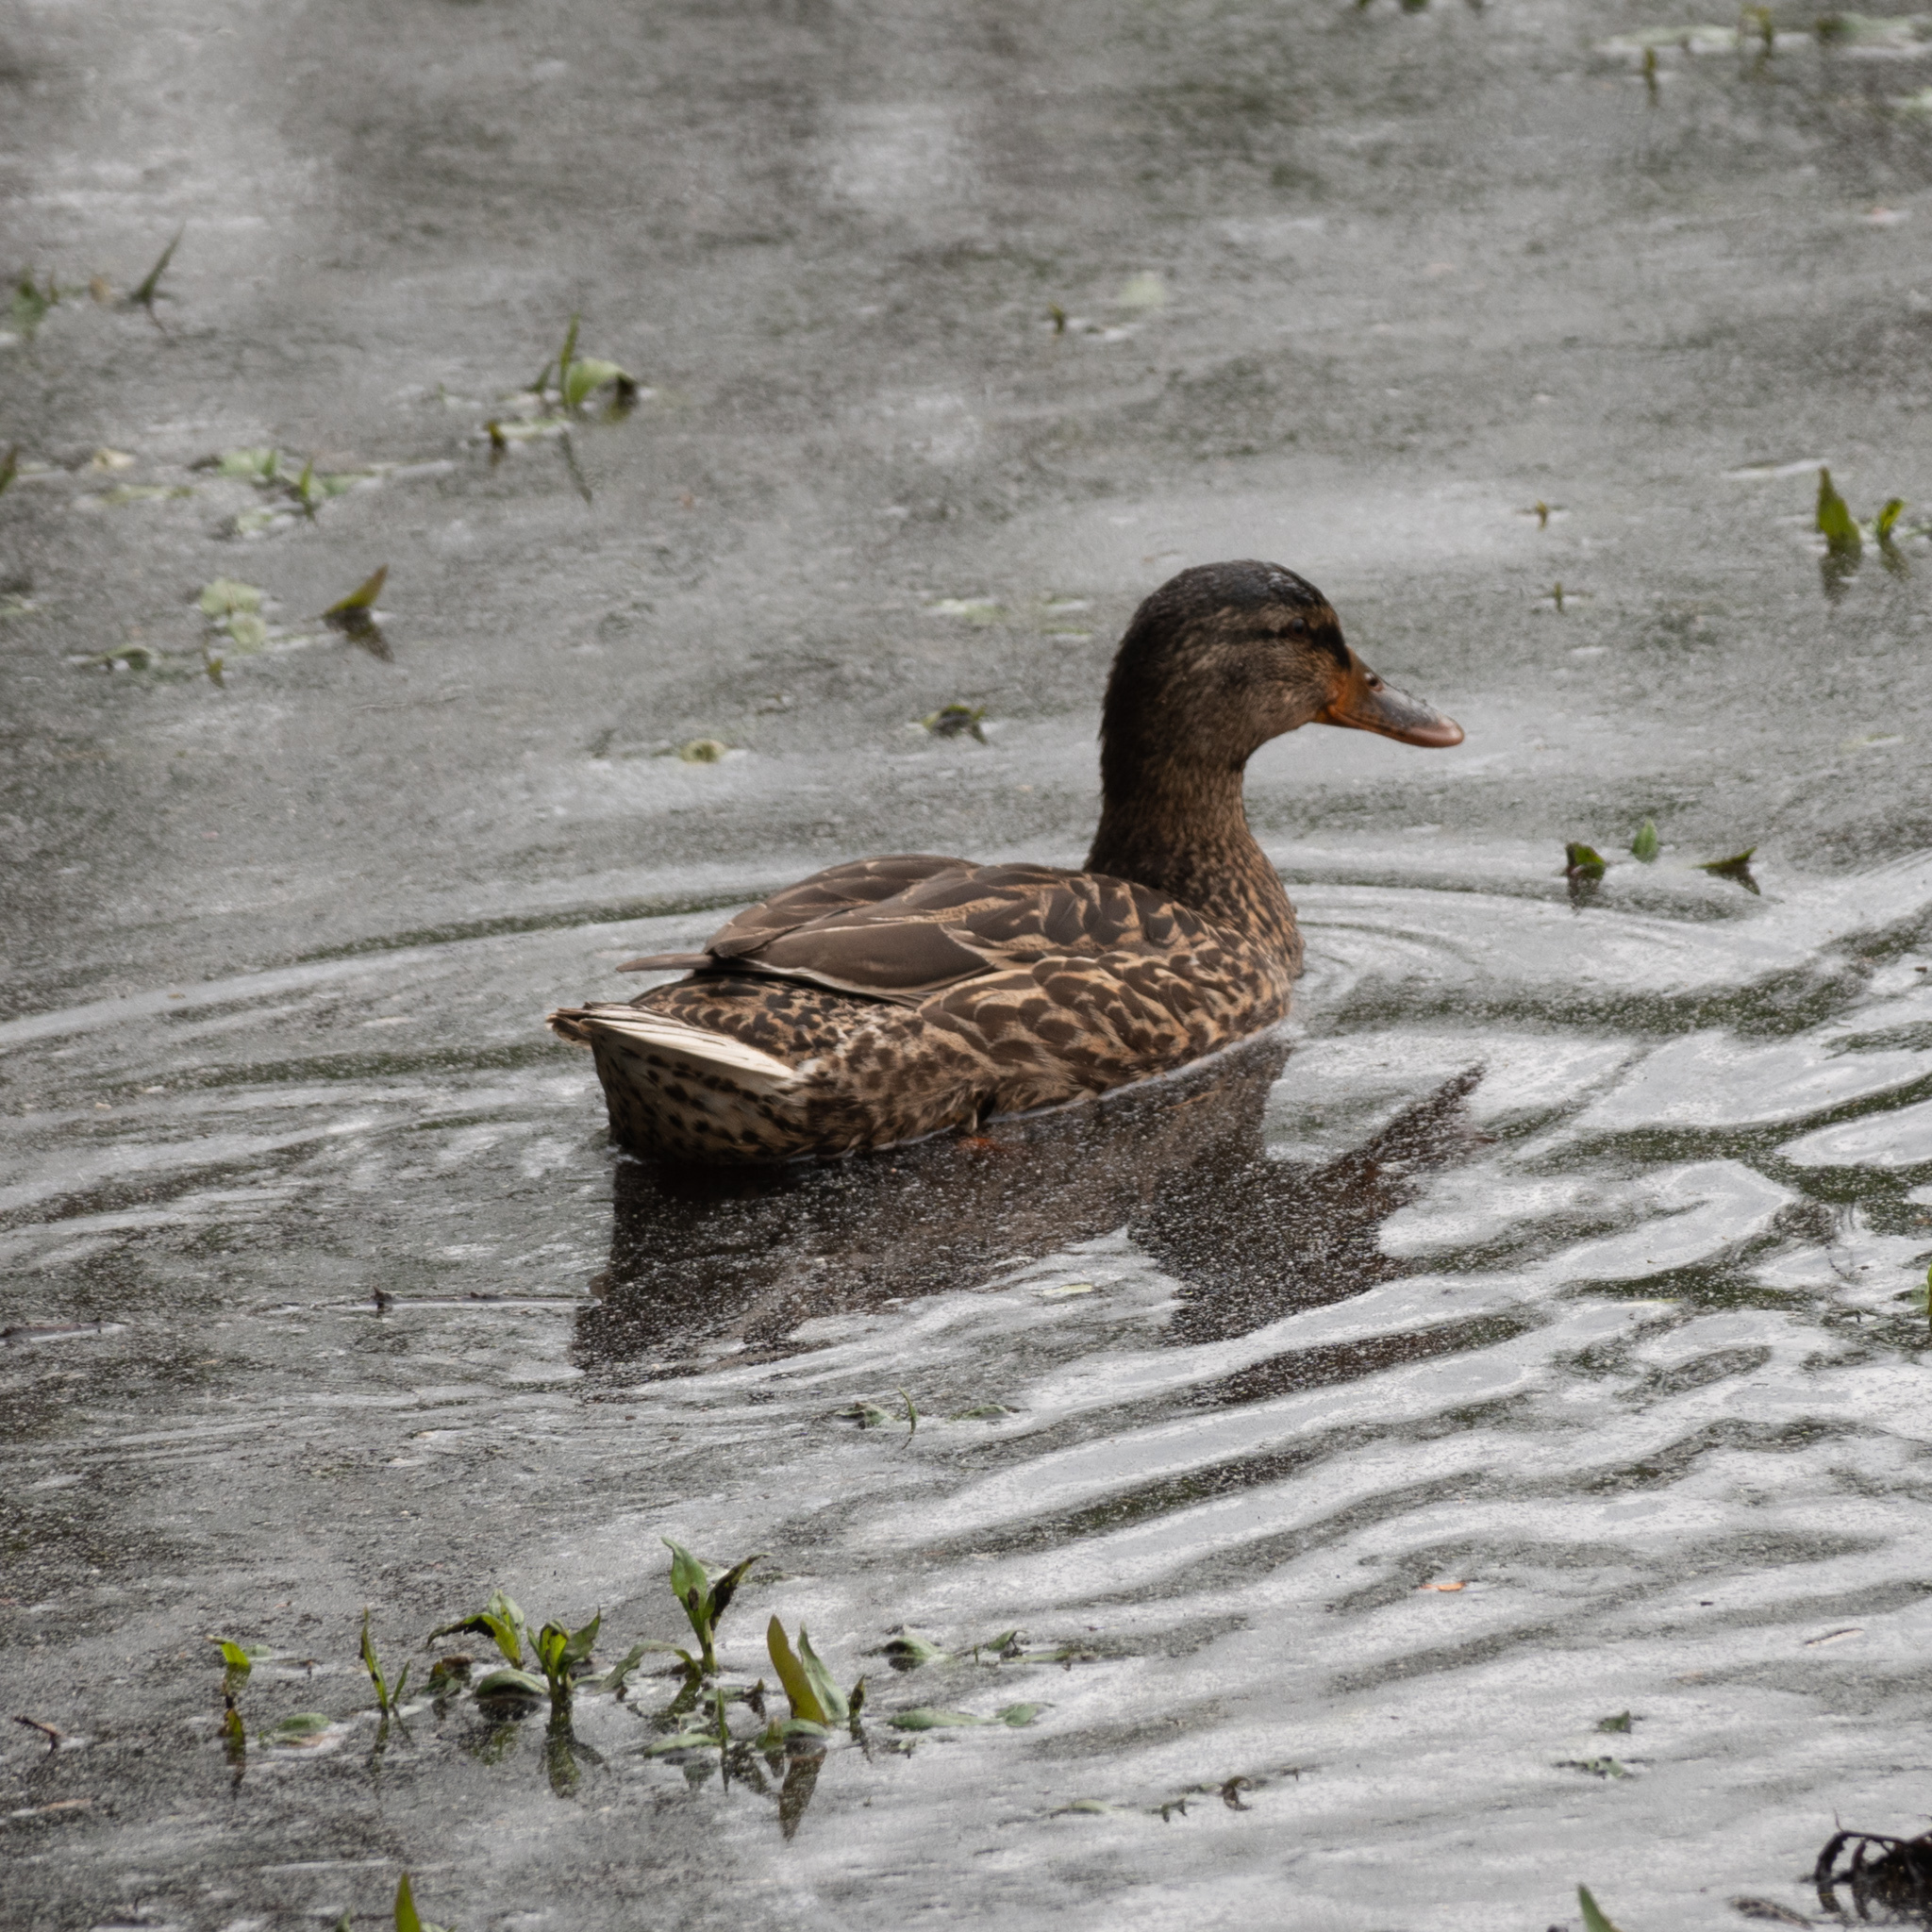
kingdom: Animalia
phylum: Chordata
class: Aves
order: Anseriformes
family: Anatidae
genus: Anas
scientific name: Anas platyrhynchos
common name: Mallard
